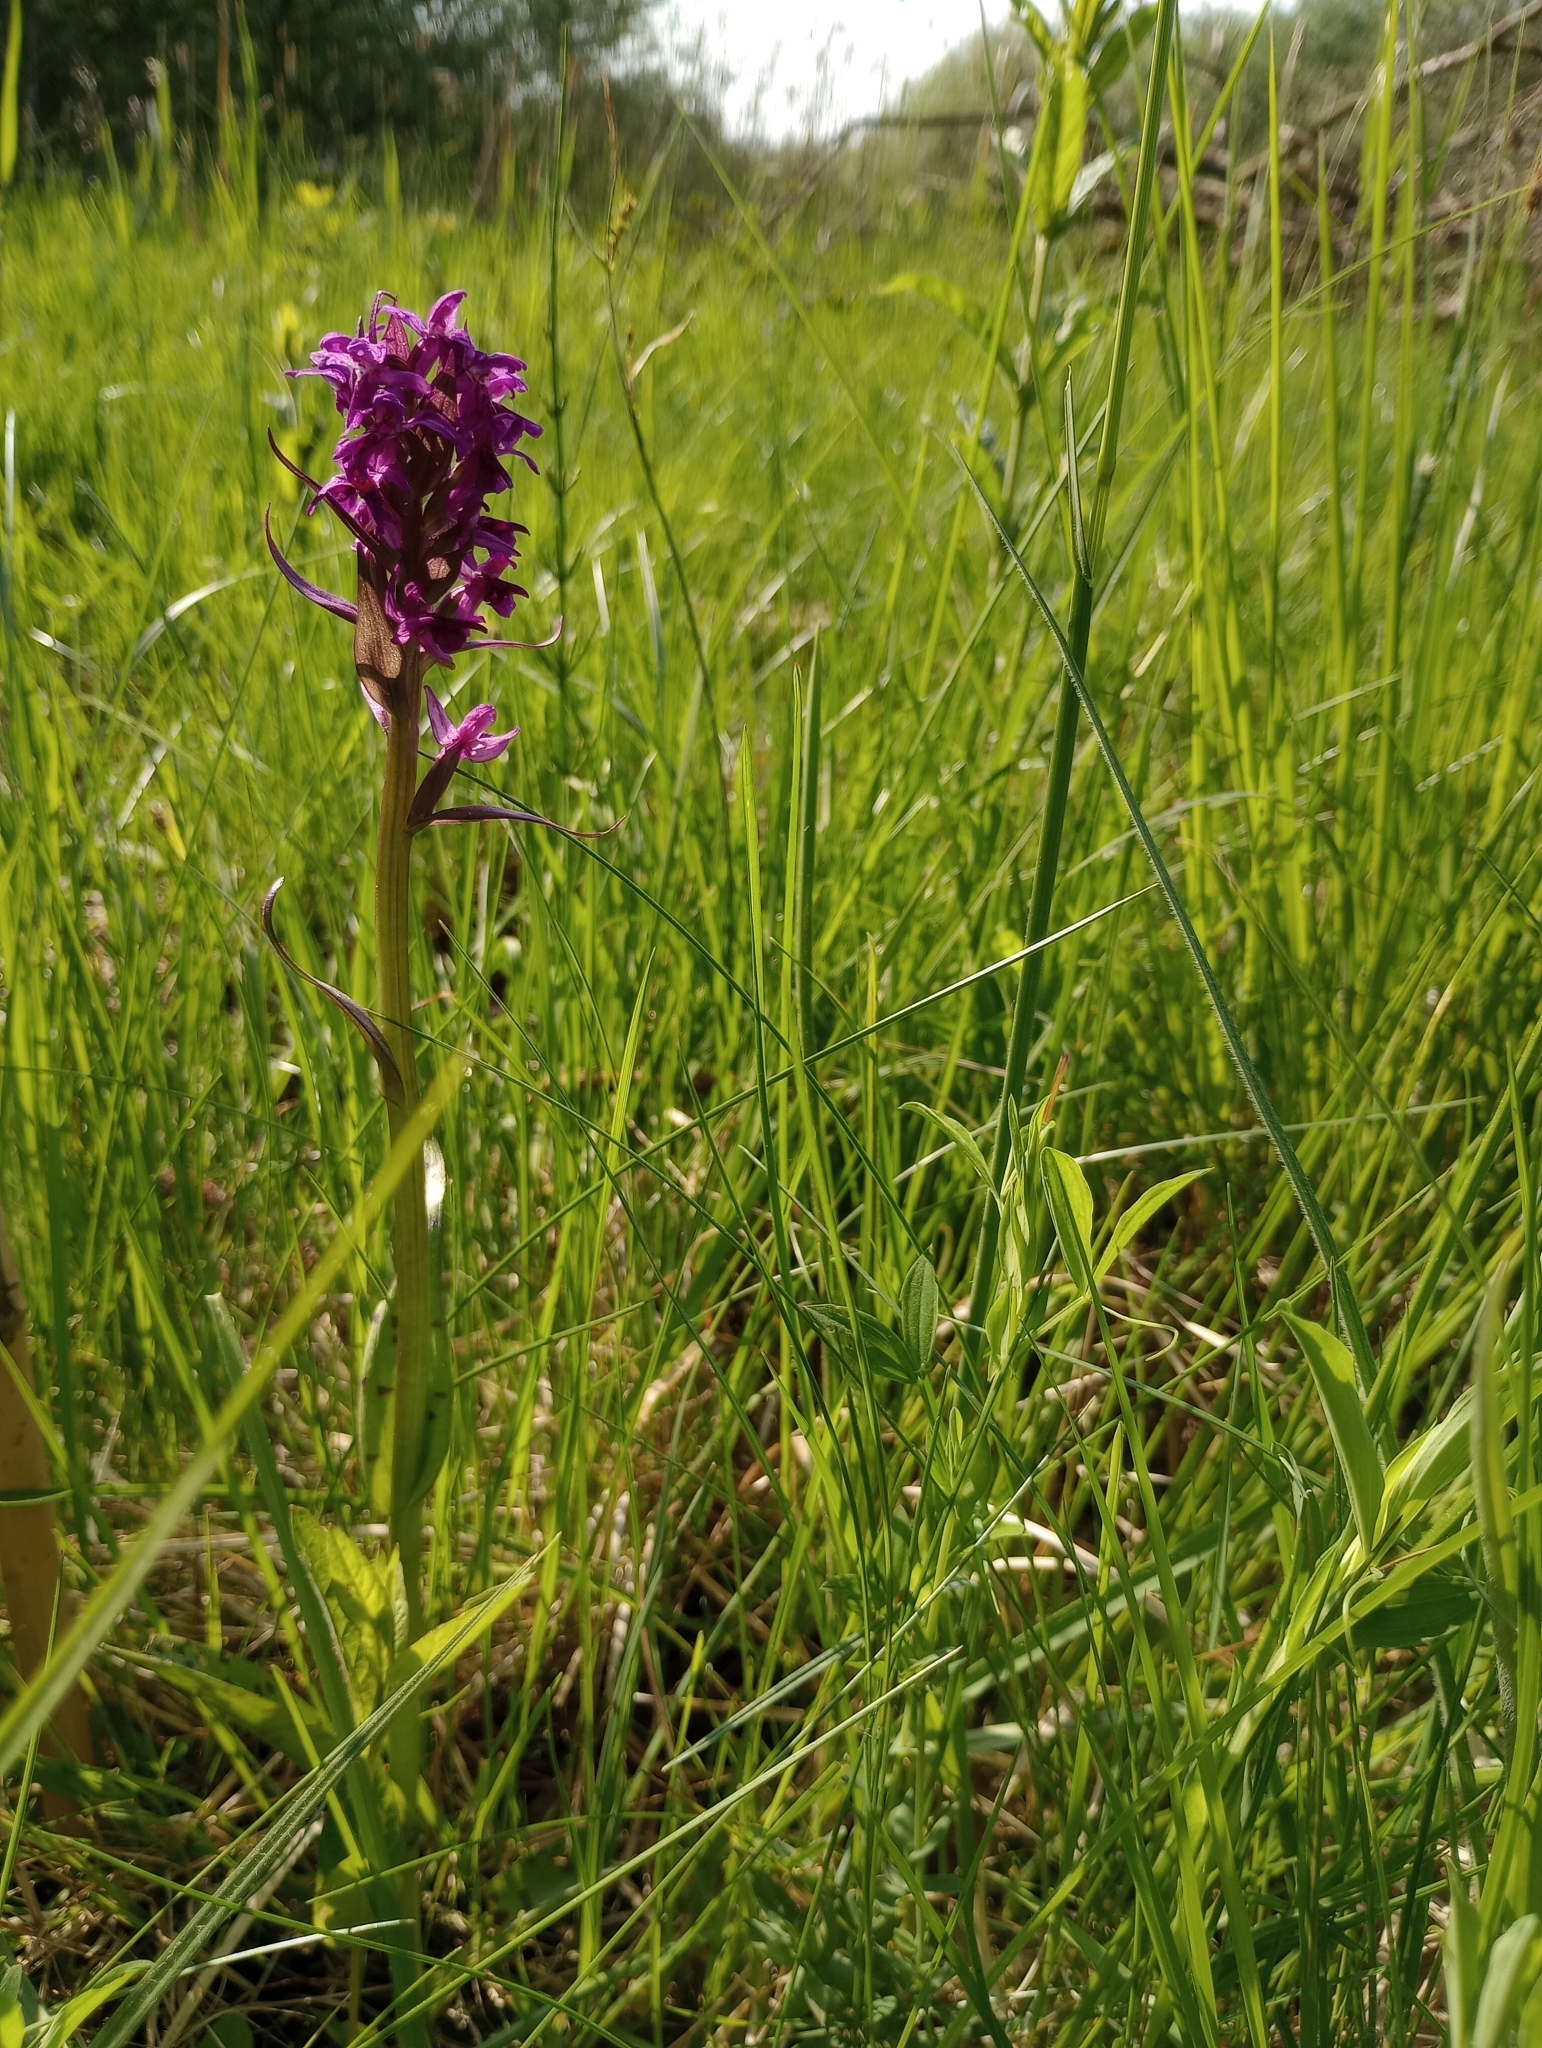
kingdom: Plantae
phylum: Tracheophyta
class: Liliopsida
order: Asparagales
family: Orchidaceae
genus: Dactylorhiza
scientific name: Dactylorhiza majalis
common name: Marsh orchid
